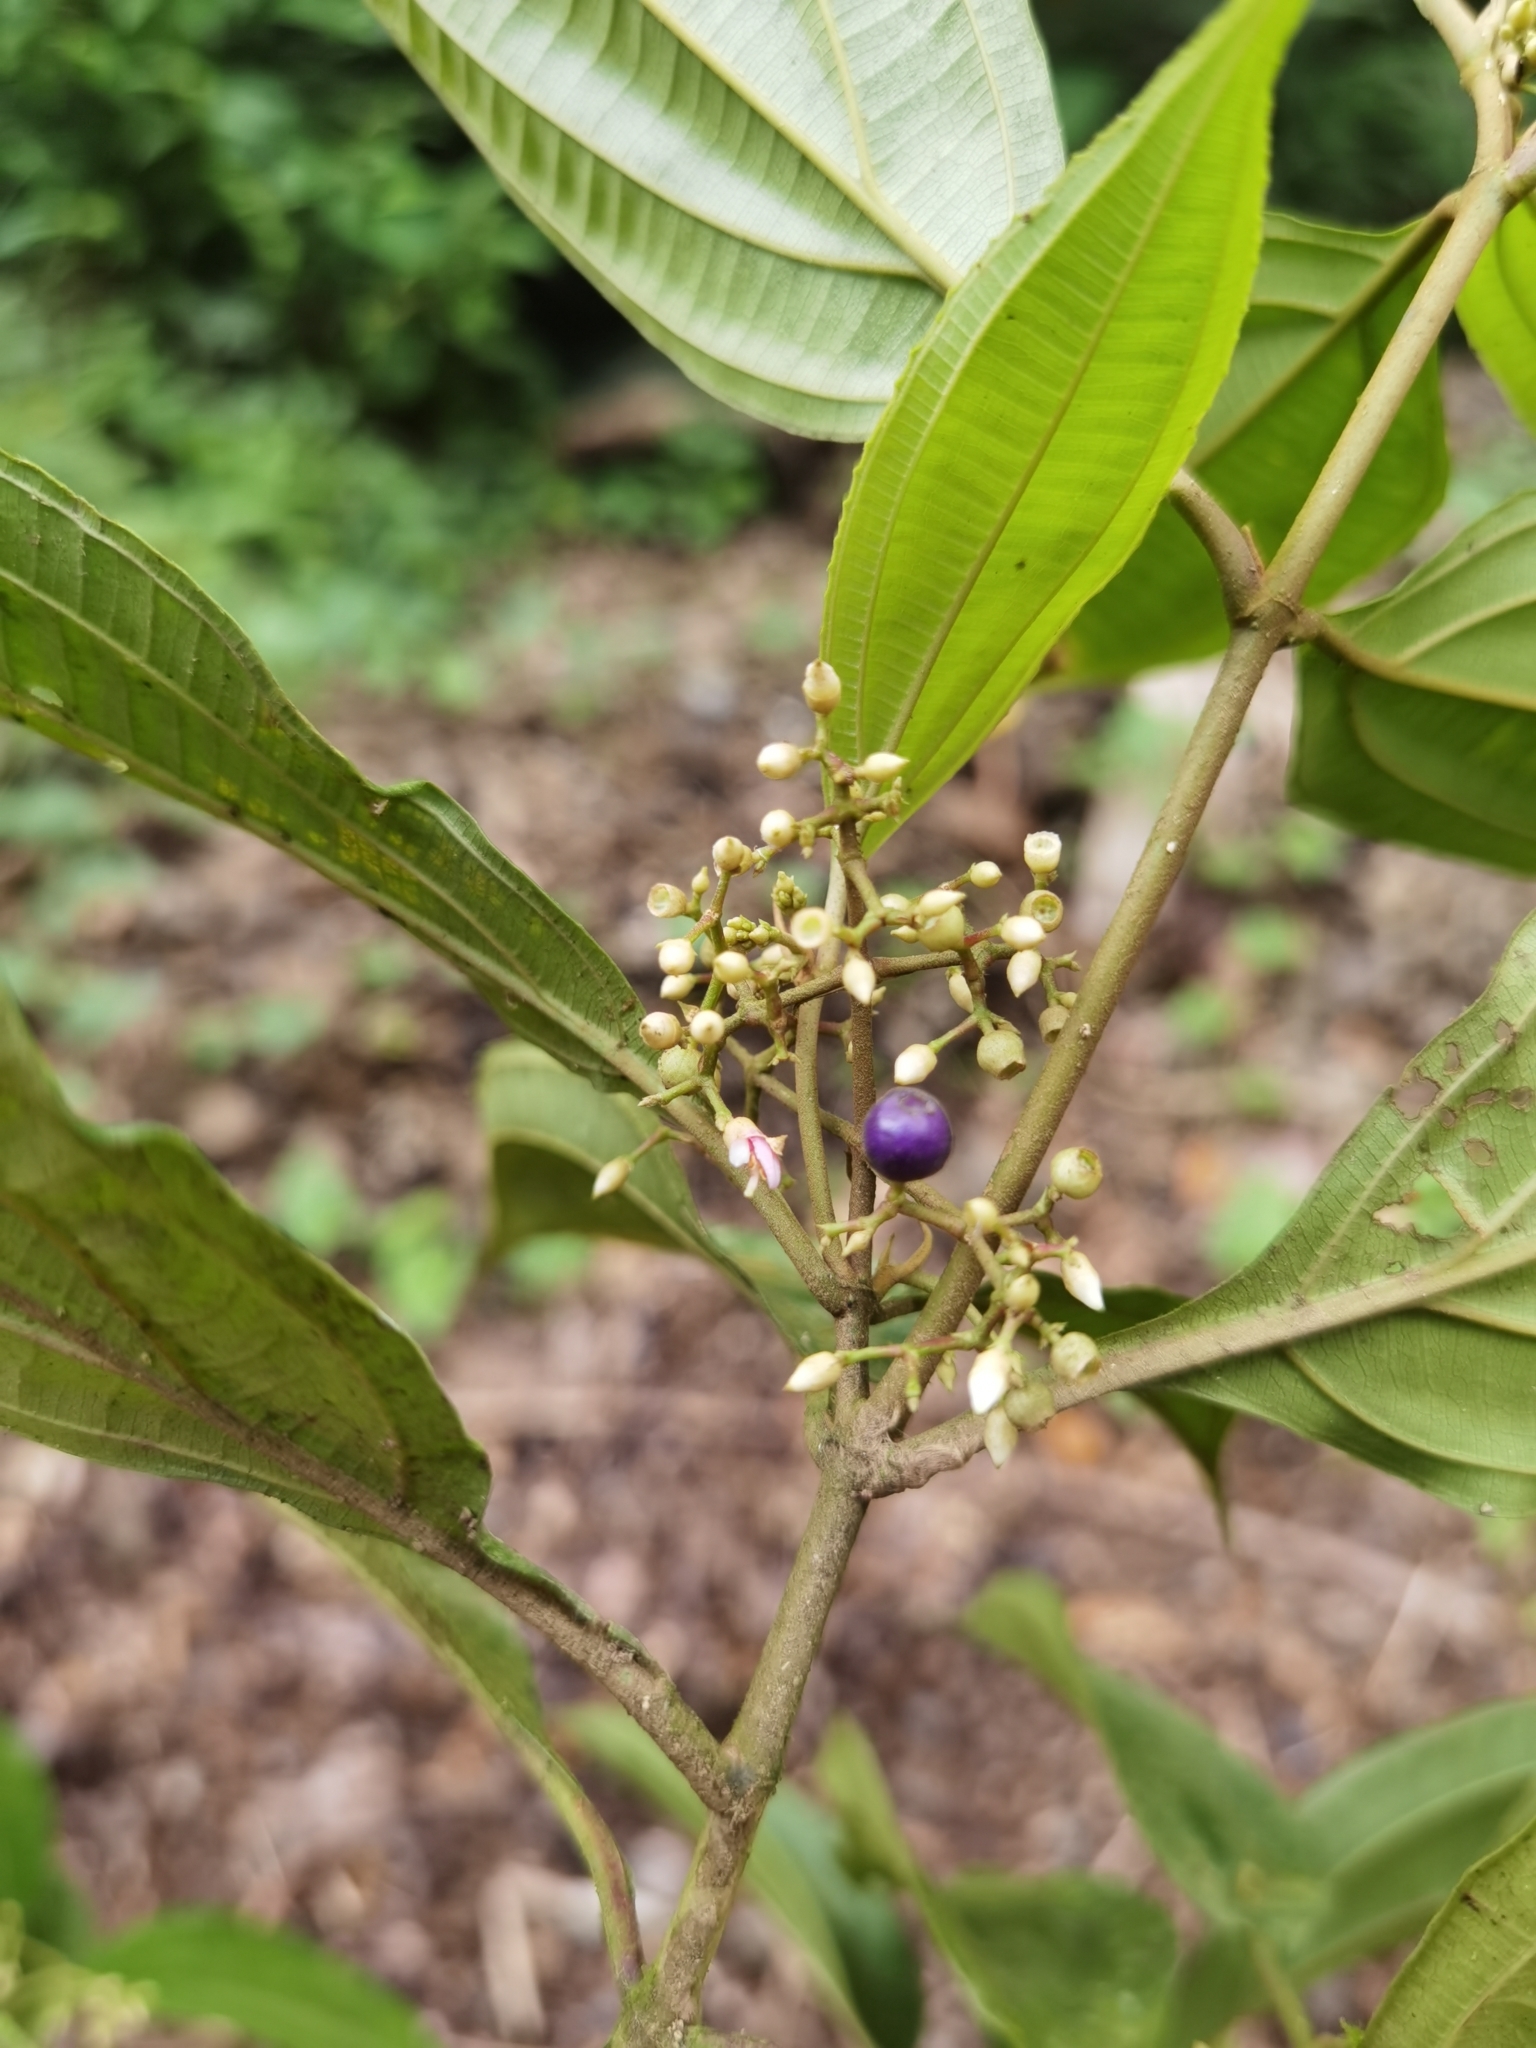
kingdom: Plantae
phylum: Tracheophyta
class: Magnoliopsida
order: Myrtales
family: Melastomataceae
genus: Miconia
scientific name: Miconia cinnamomea
